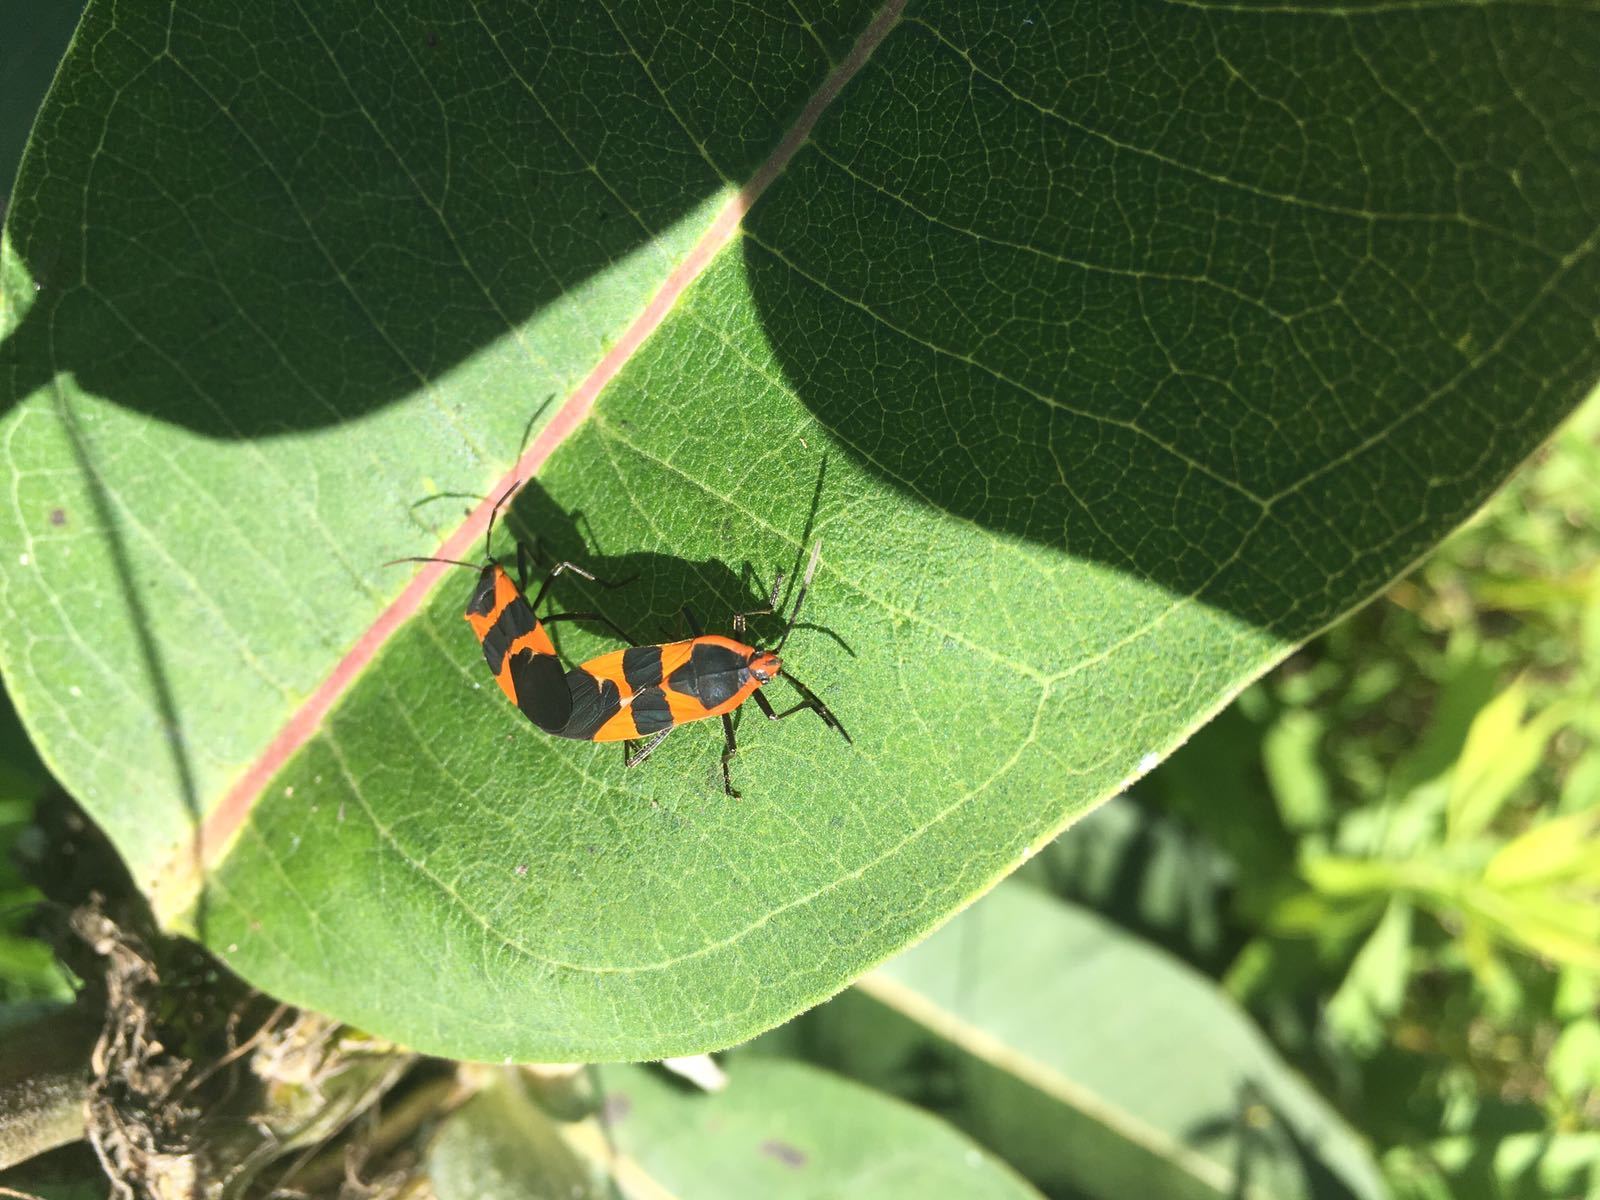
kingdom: Animalia
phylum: Arthropoda
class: Insecta
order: Hemiptera
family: Lygaeidae
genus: Oncopeltus
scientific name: Oncopeltus fasciatus
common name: Large milkweed bug
